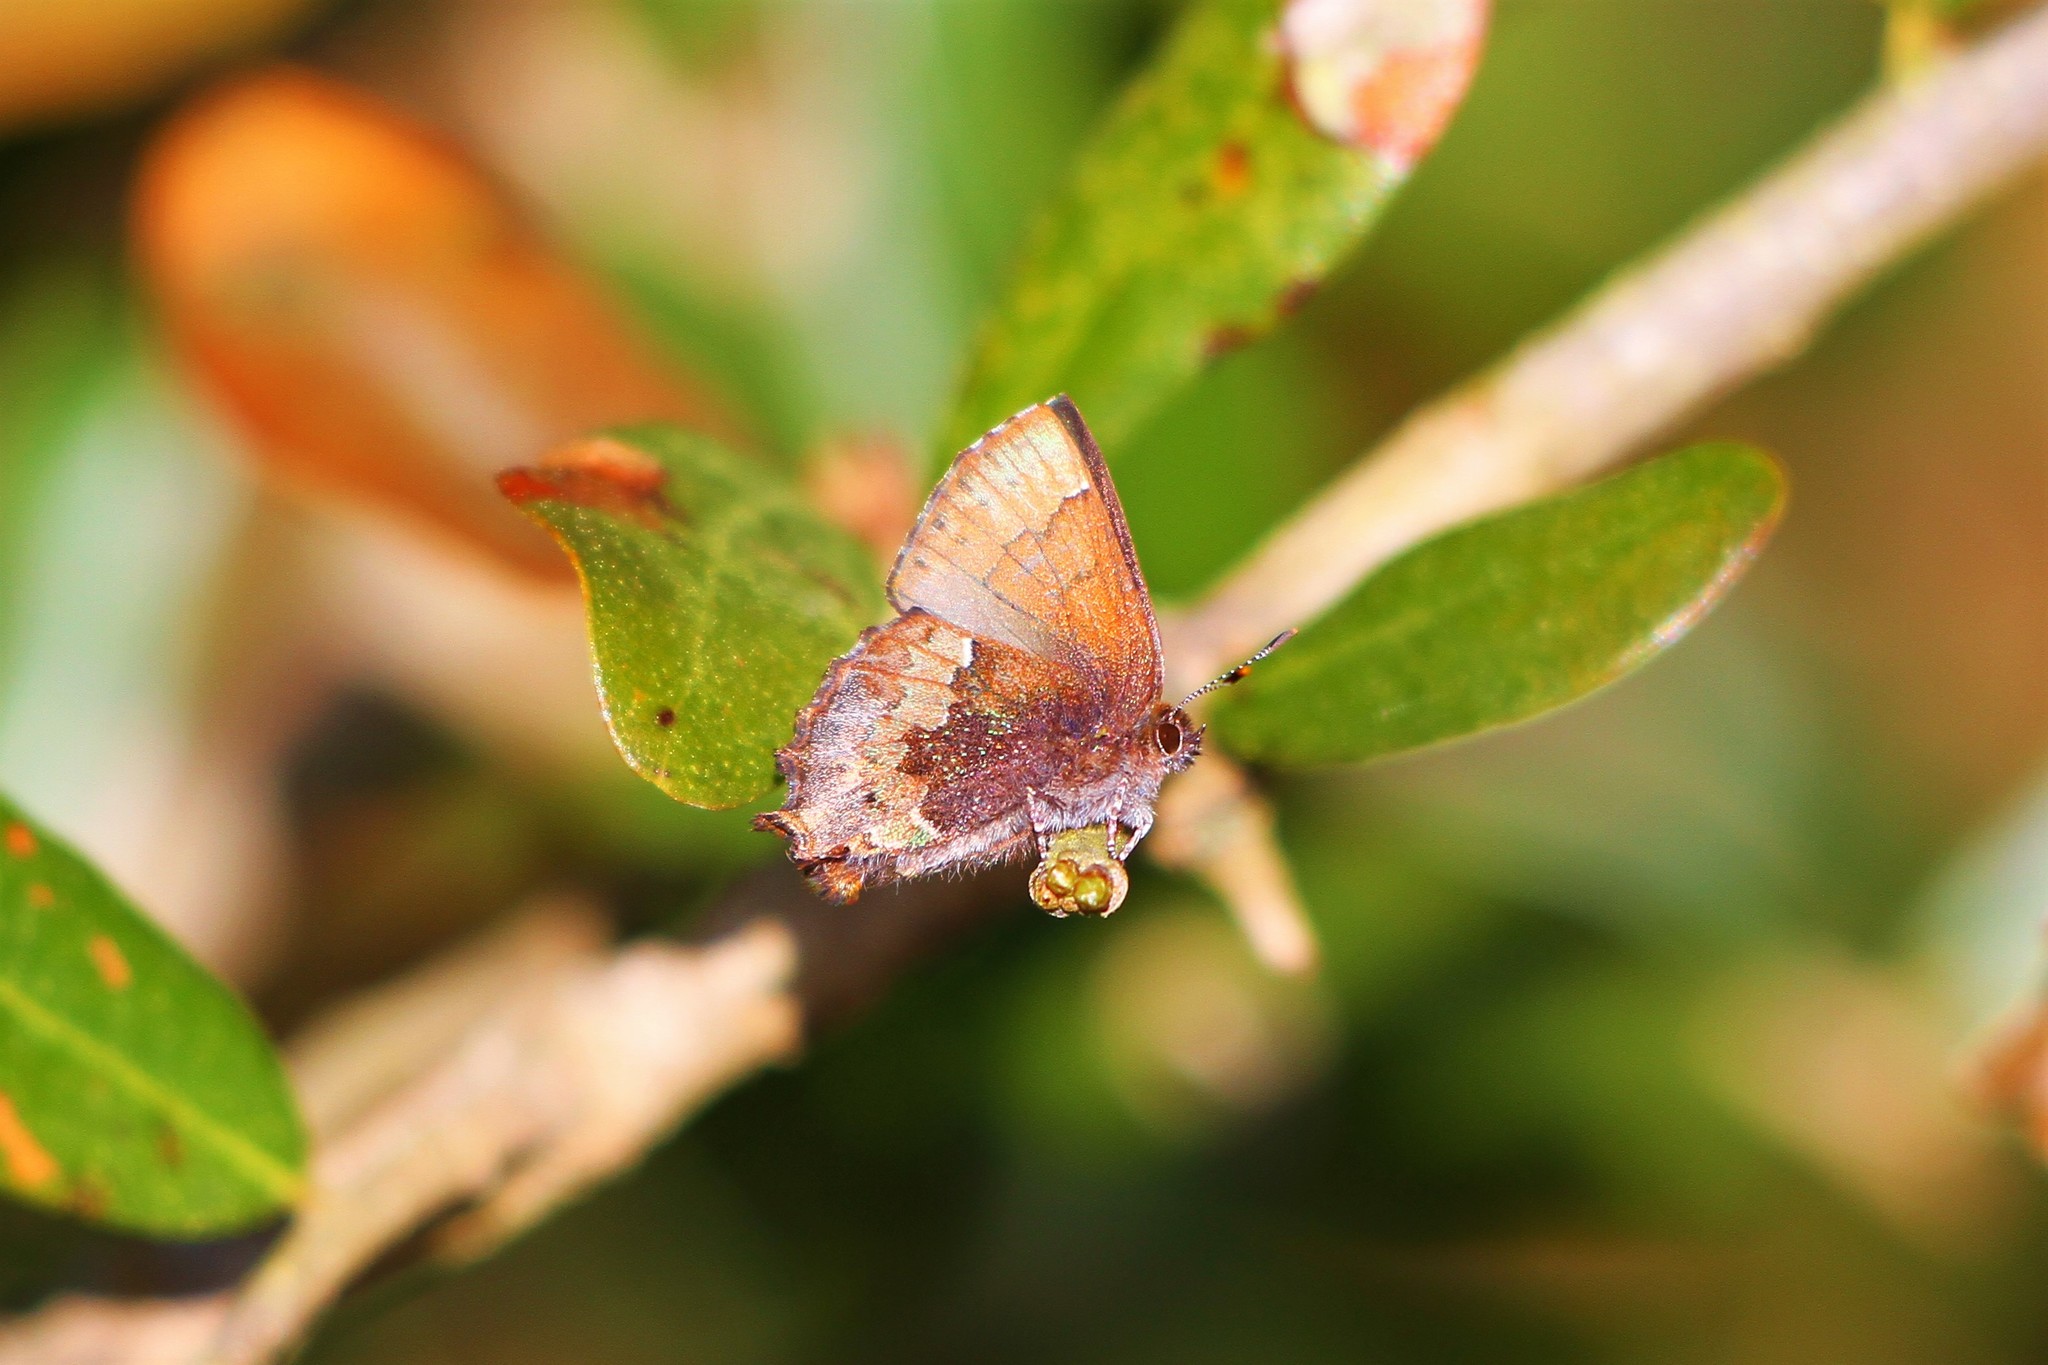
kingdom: Animalia
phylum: Arthropoda
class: Insecta
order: Lepidoptera
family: Lycaenidae
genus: Incisalia
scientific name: Incisalia henrici
